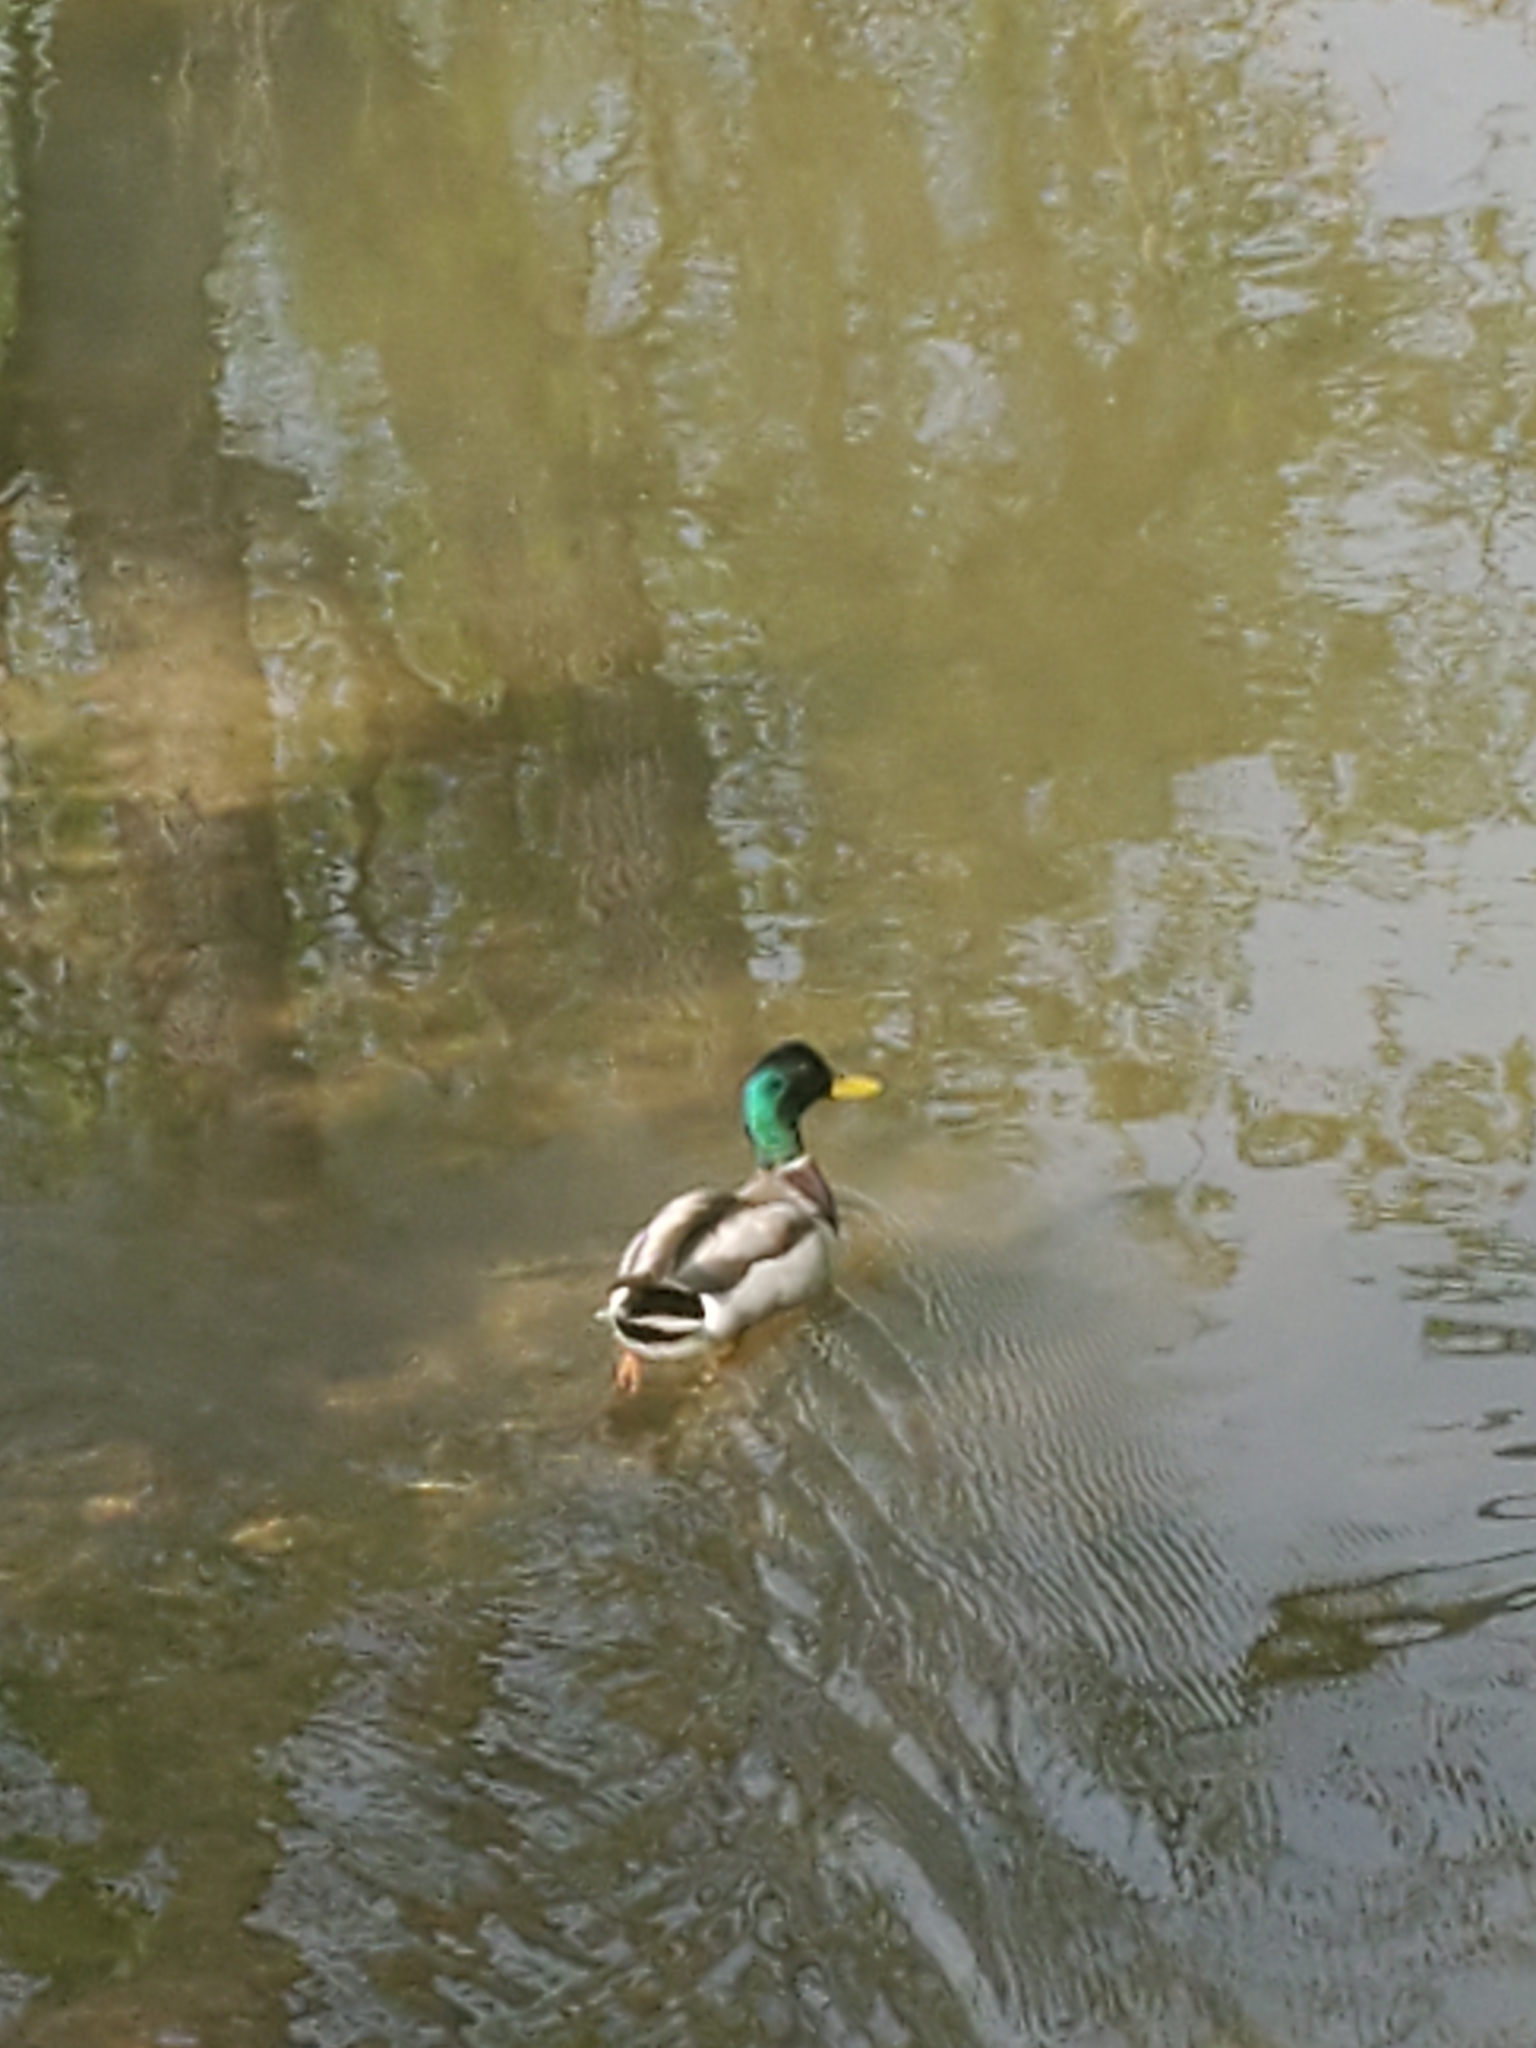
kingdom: Animalia
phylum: Chordata
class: Aves
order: Anseriformes
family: Anatidae
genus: Anas
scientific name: Anas platyrhynchos
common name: Mallard
